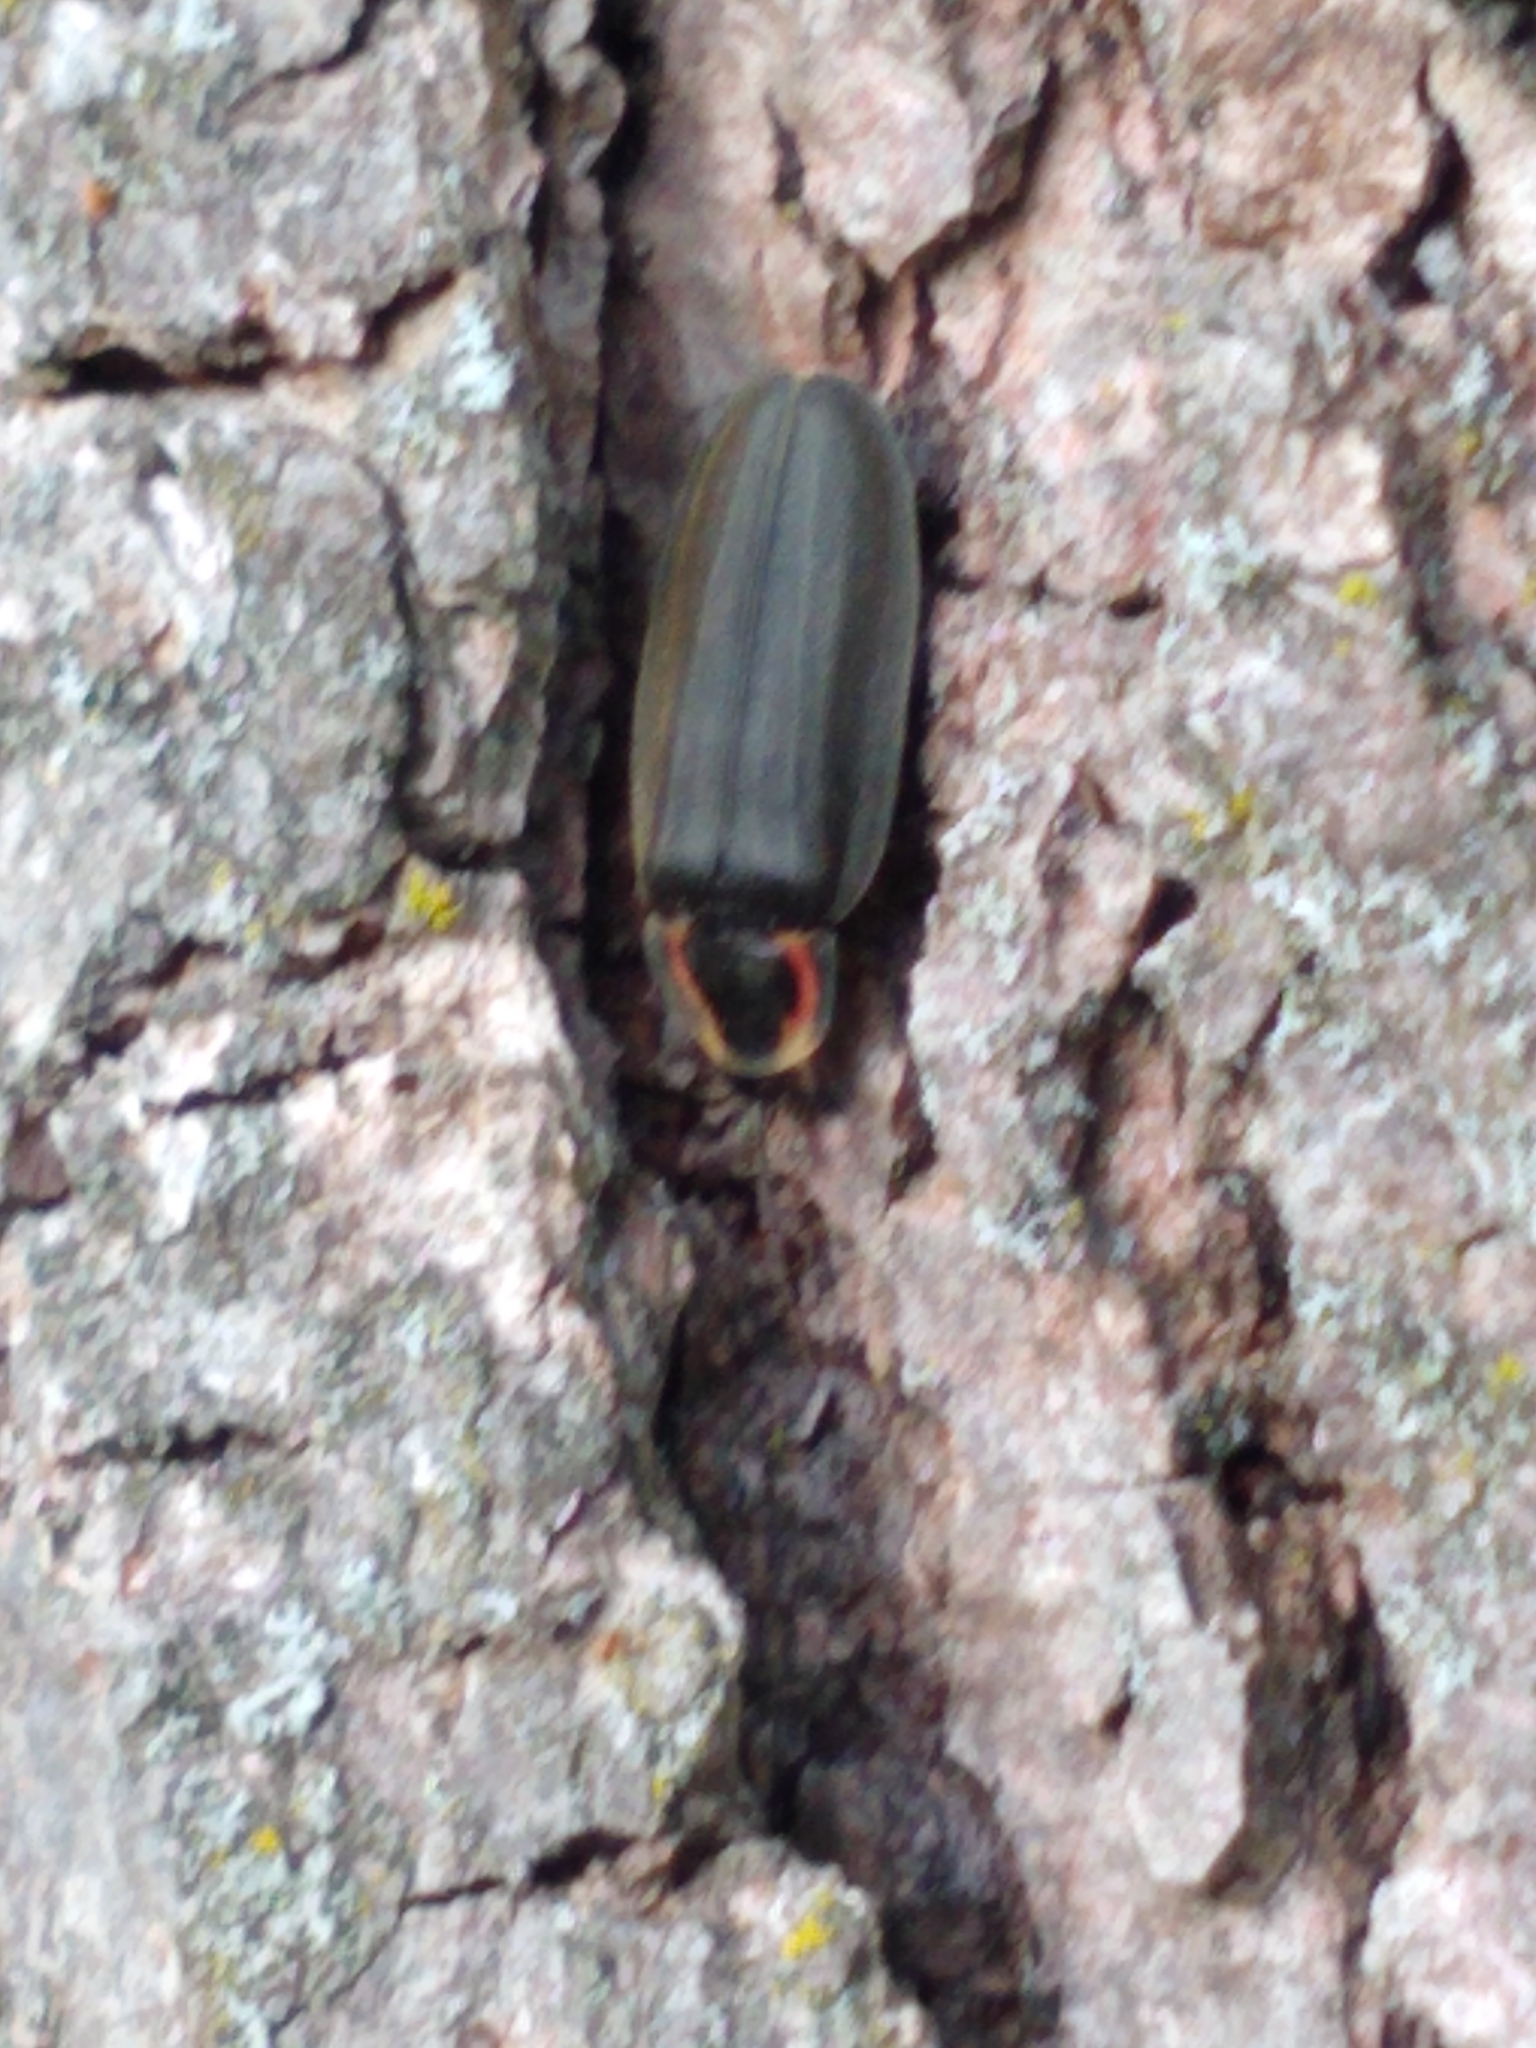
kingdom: Animalia
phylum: Arthropoda
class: Insecta
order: Coleoptera
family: Lampyridae
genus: Photinus
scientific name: Photinus corrusca
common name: Winter firefly
